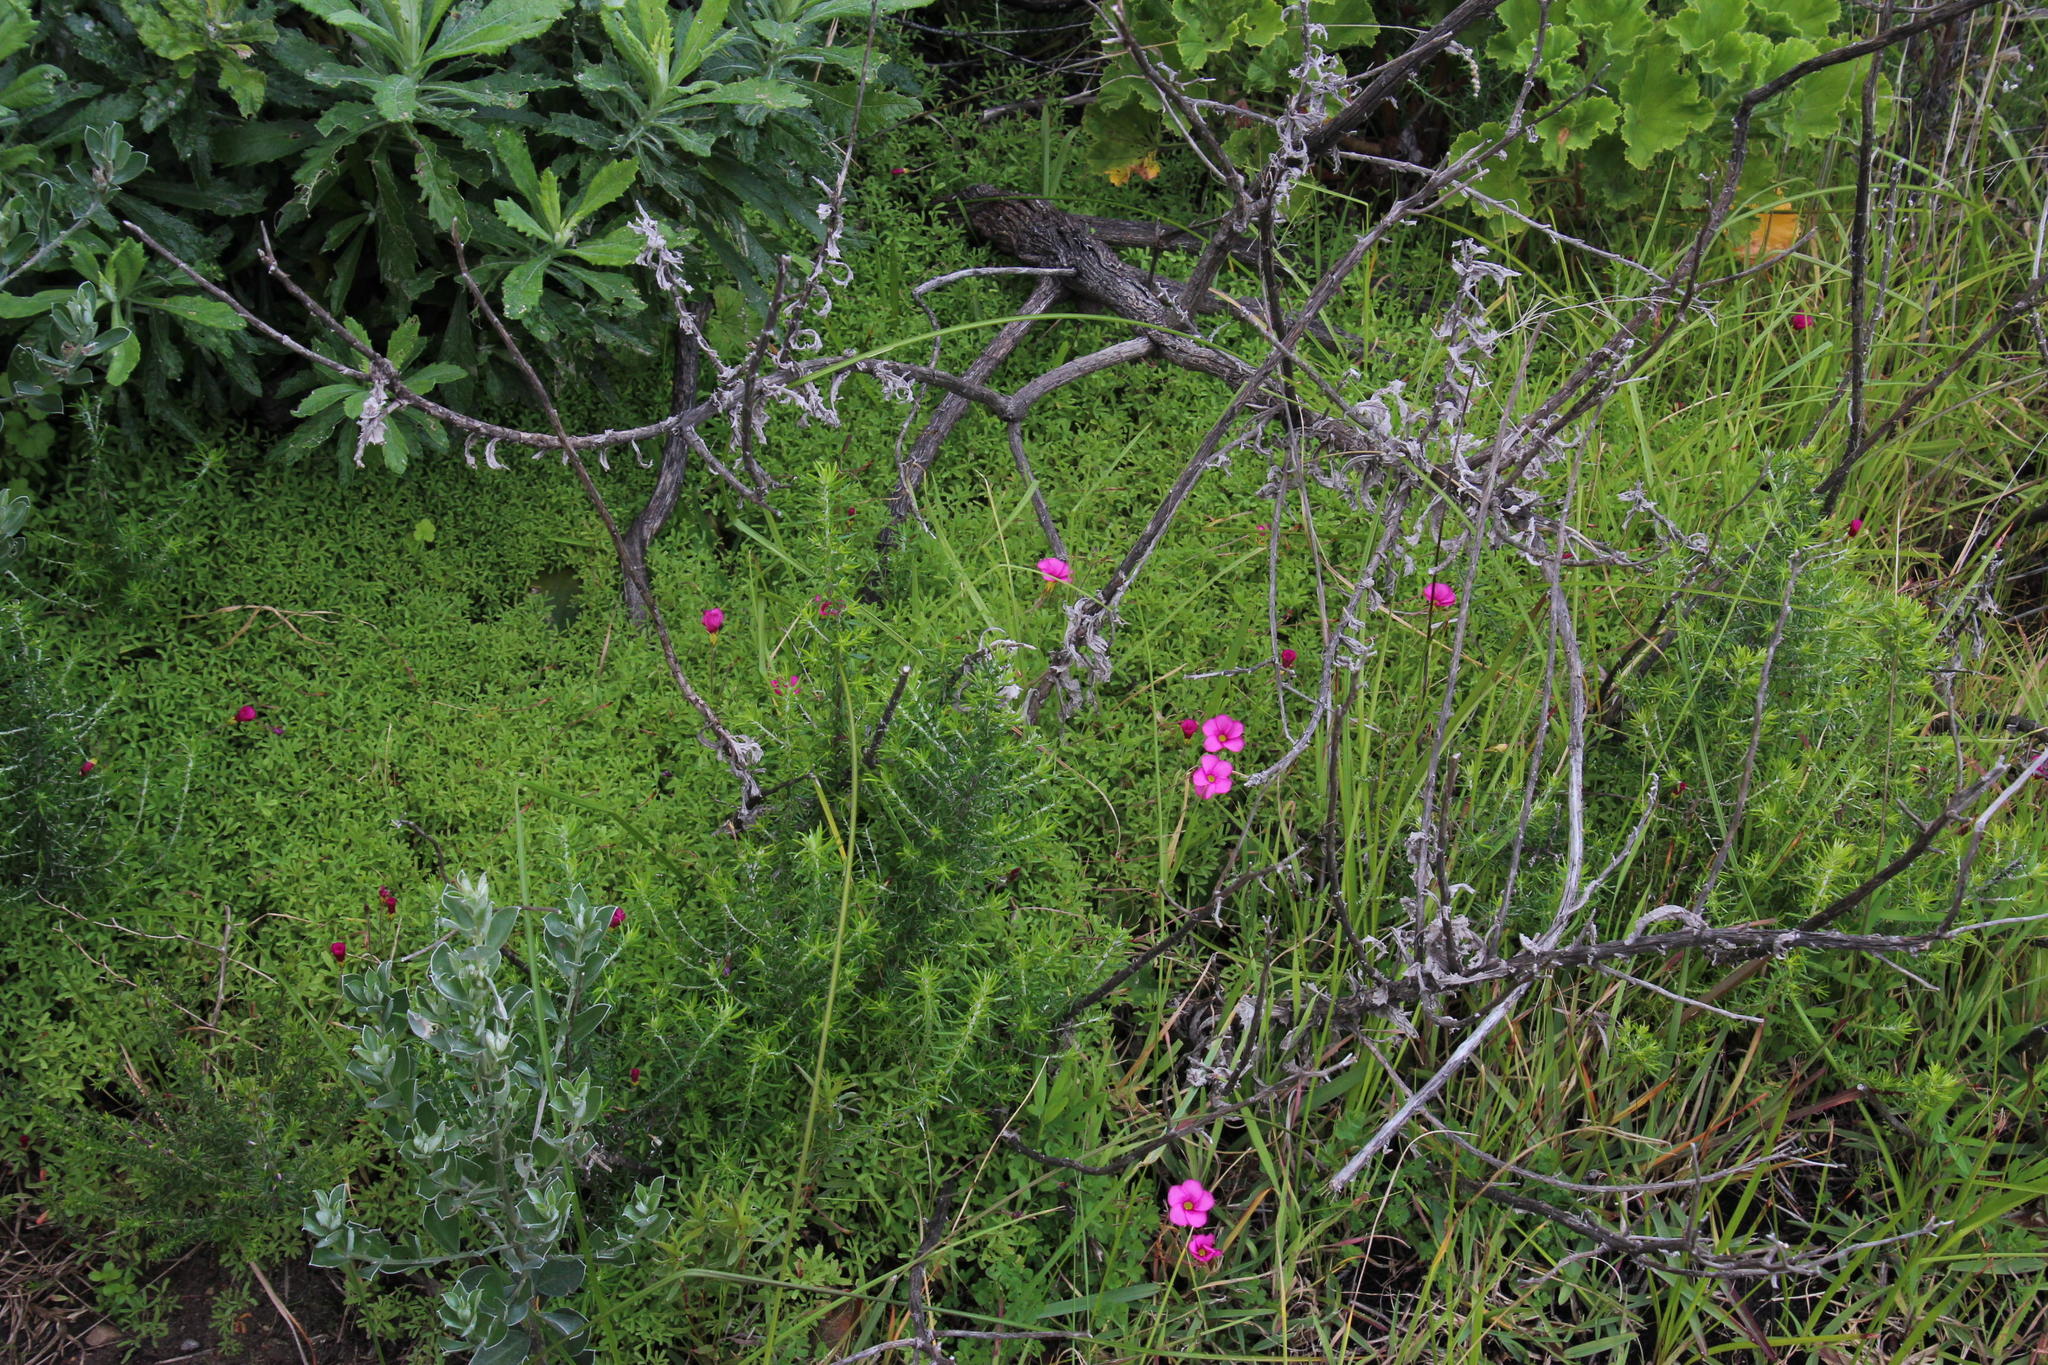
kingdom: Plantae
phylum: Tracheophyta
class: Magnoliopsida
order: Oxalidales
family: Oxalidaceae
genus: Oxalis
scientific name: Oxalis glabra
